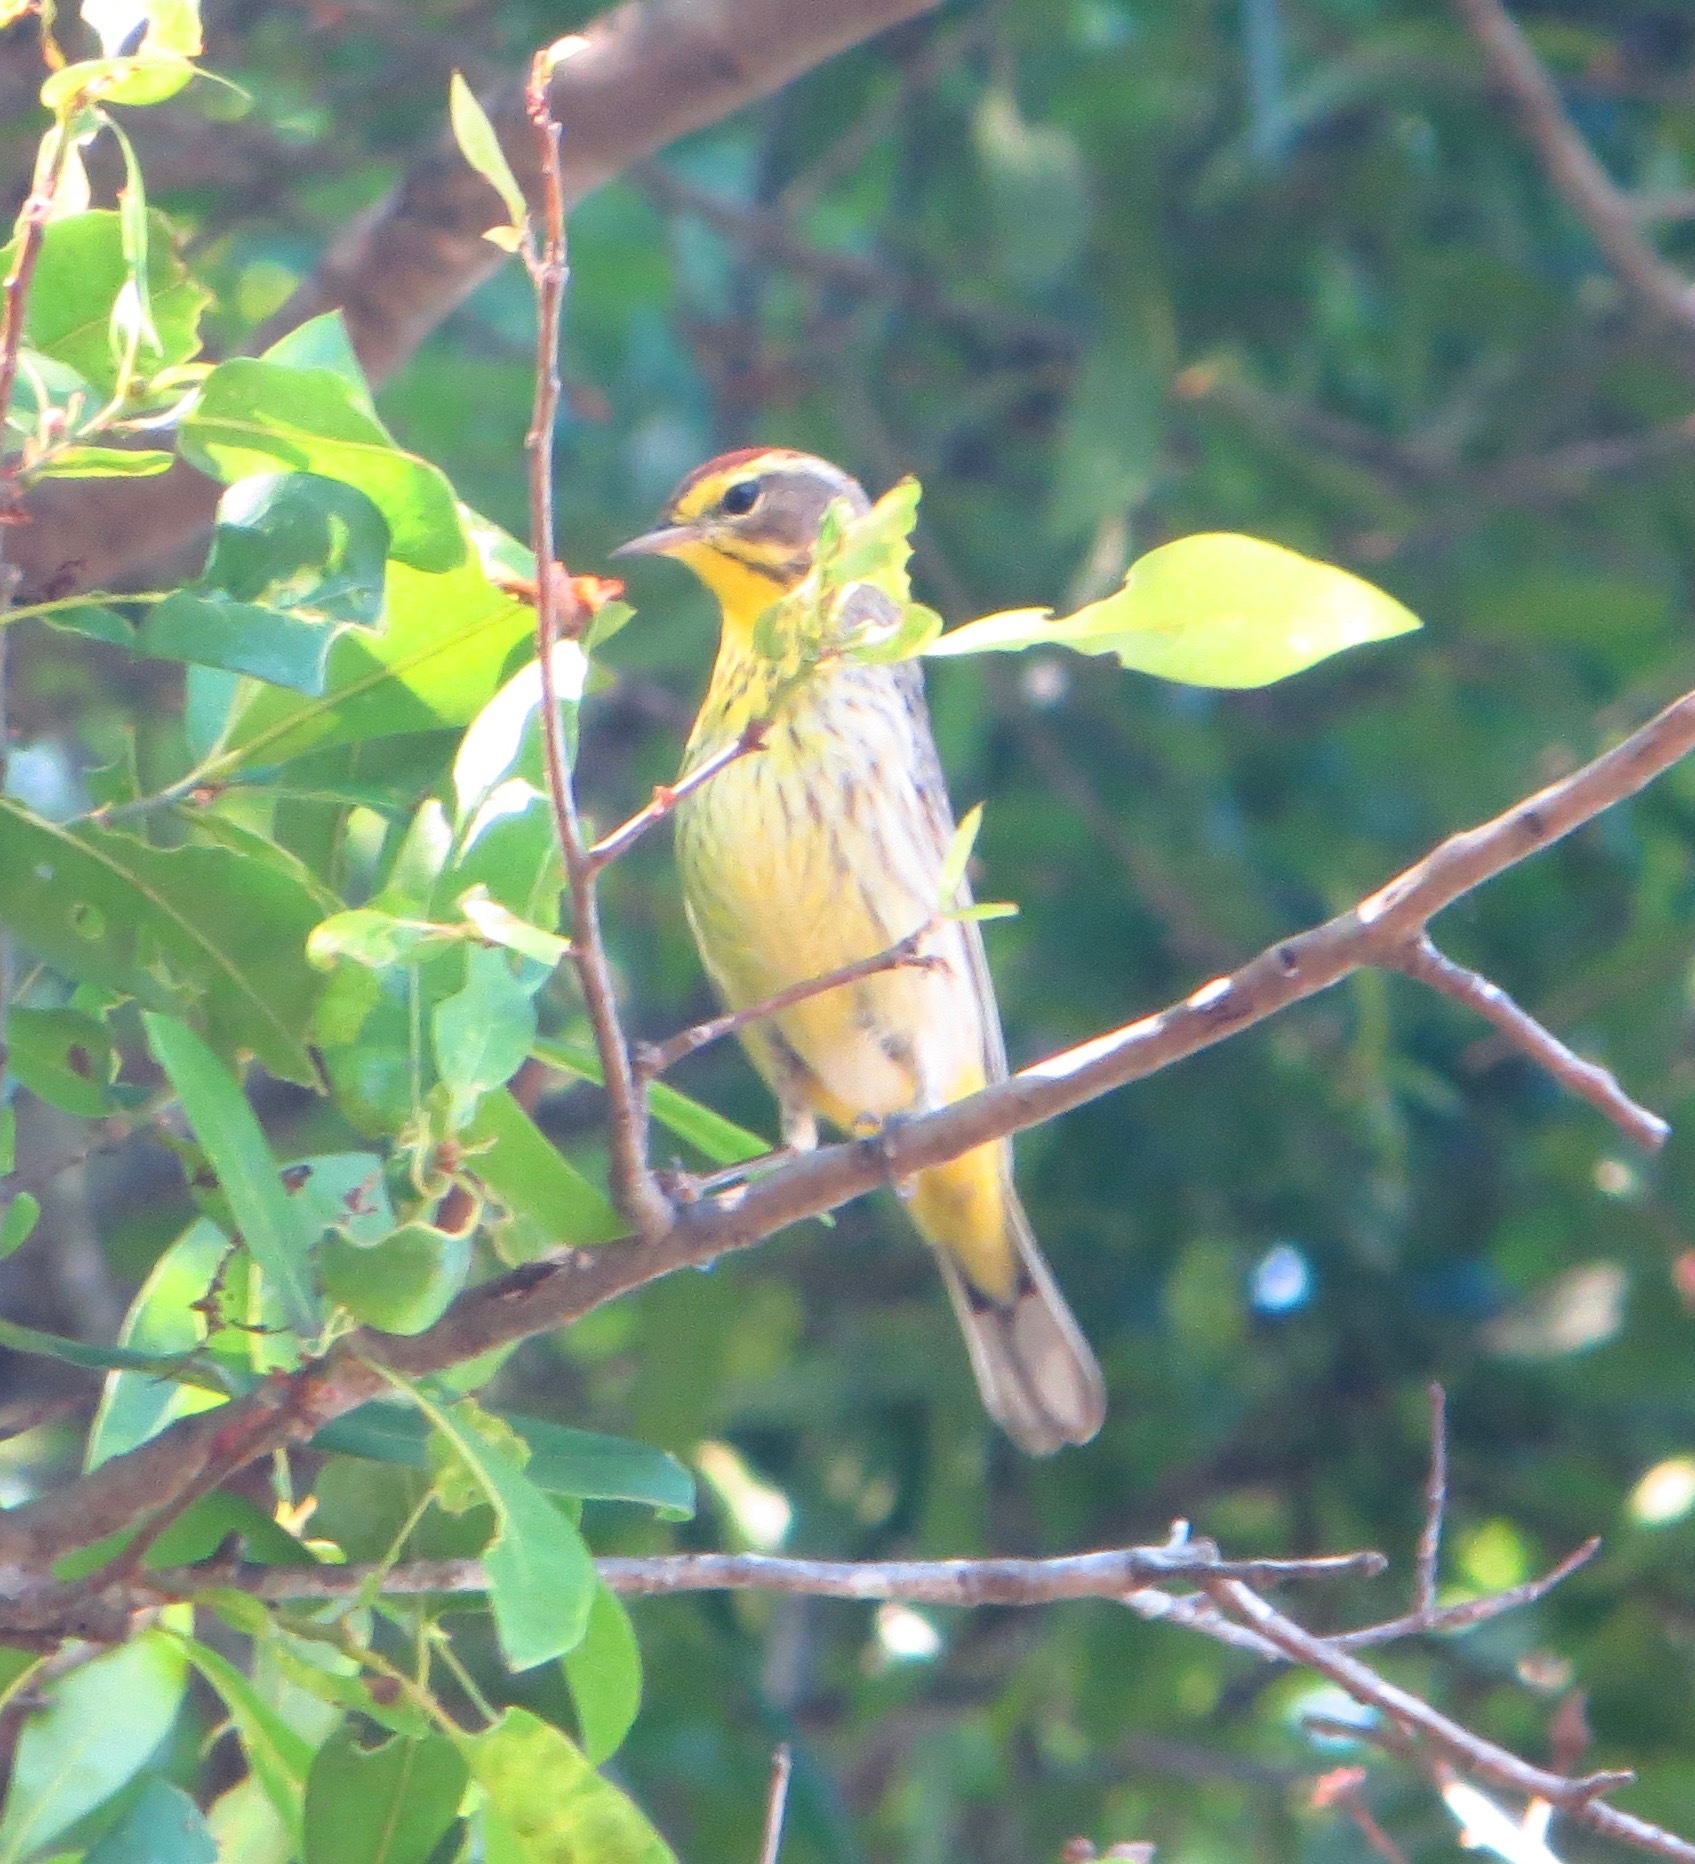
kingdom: Animalia
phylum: Chordata
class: Aves
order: Passeriformes
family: Parulidae
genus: Setophaga
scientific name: Setophaga palmarum
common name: Palm warbler
